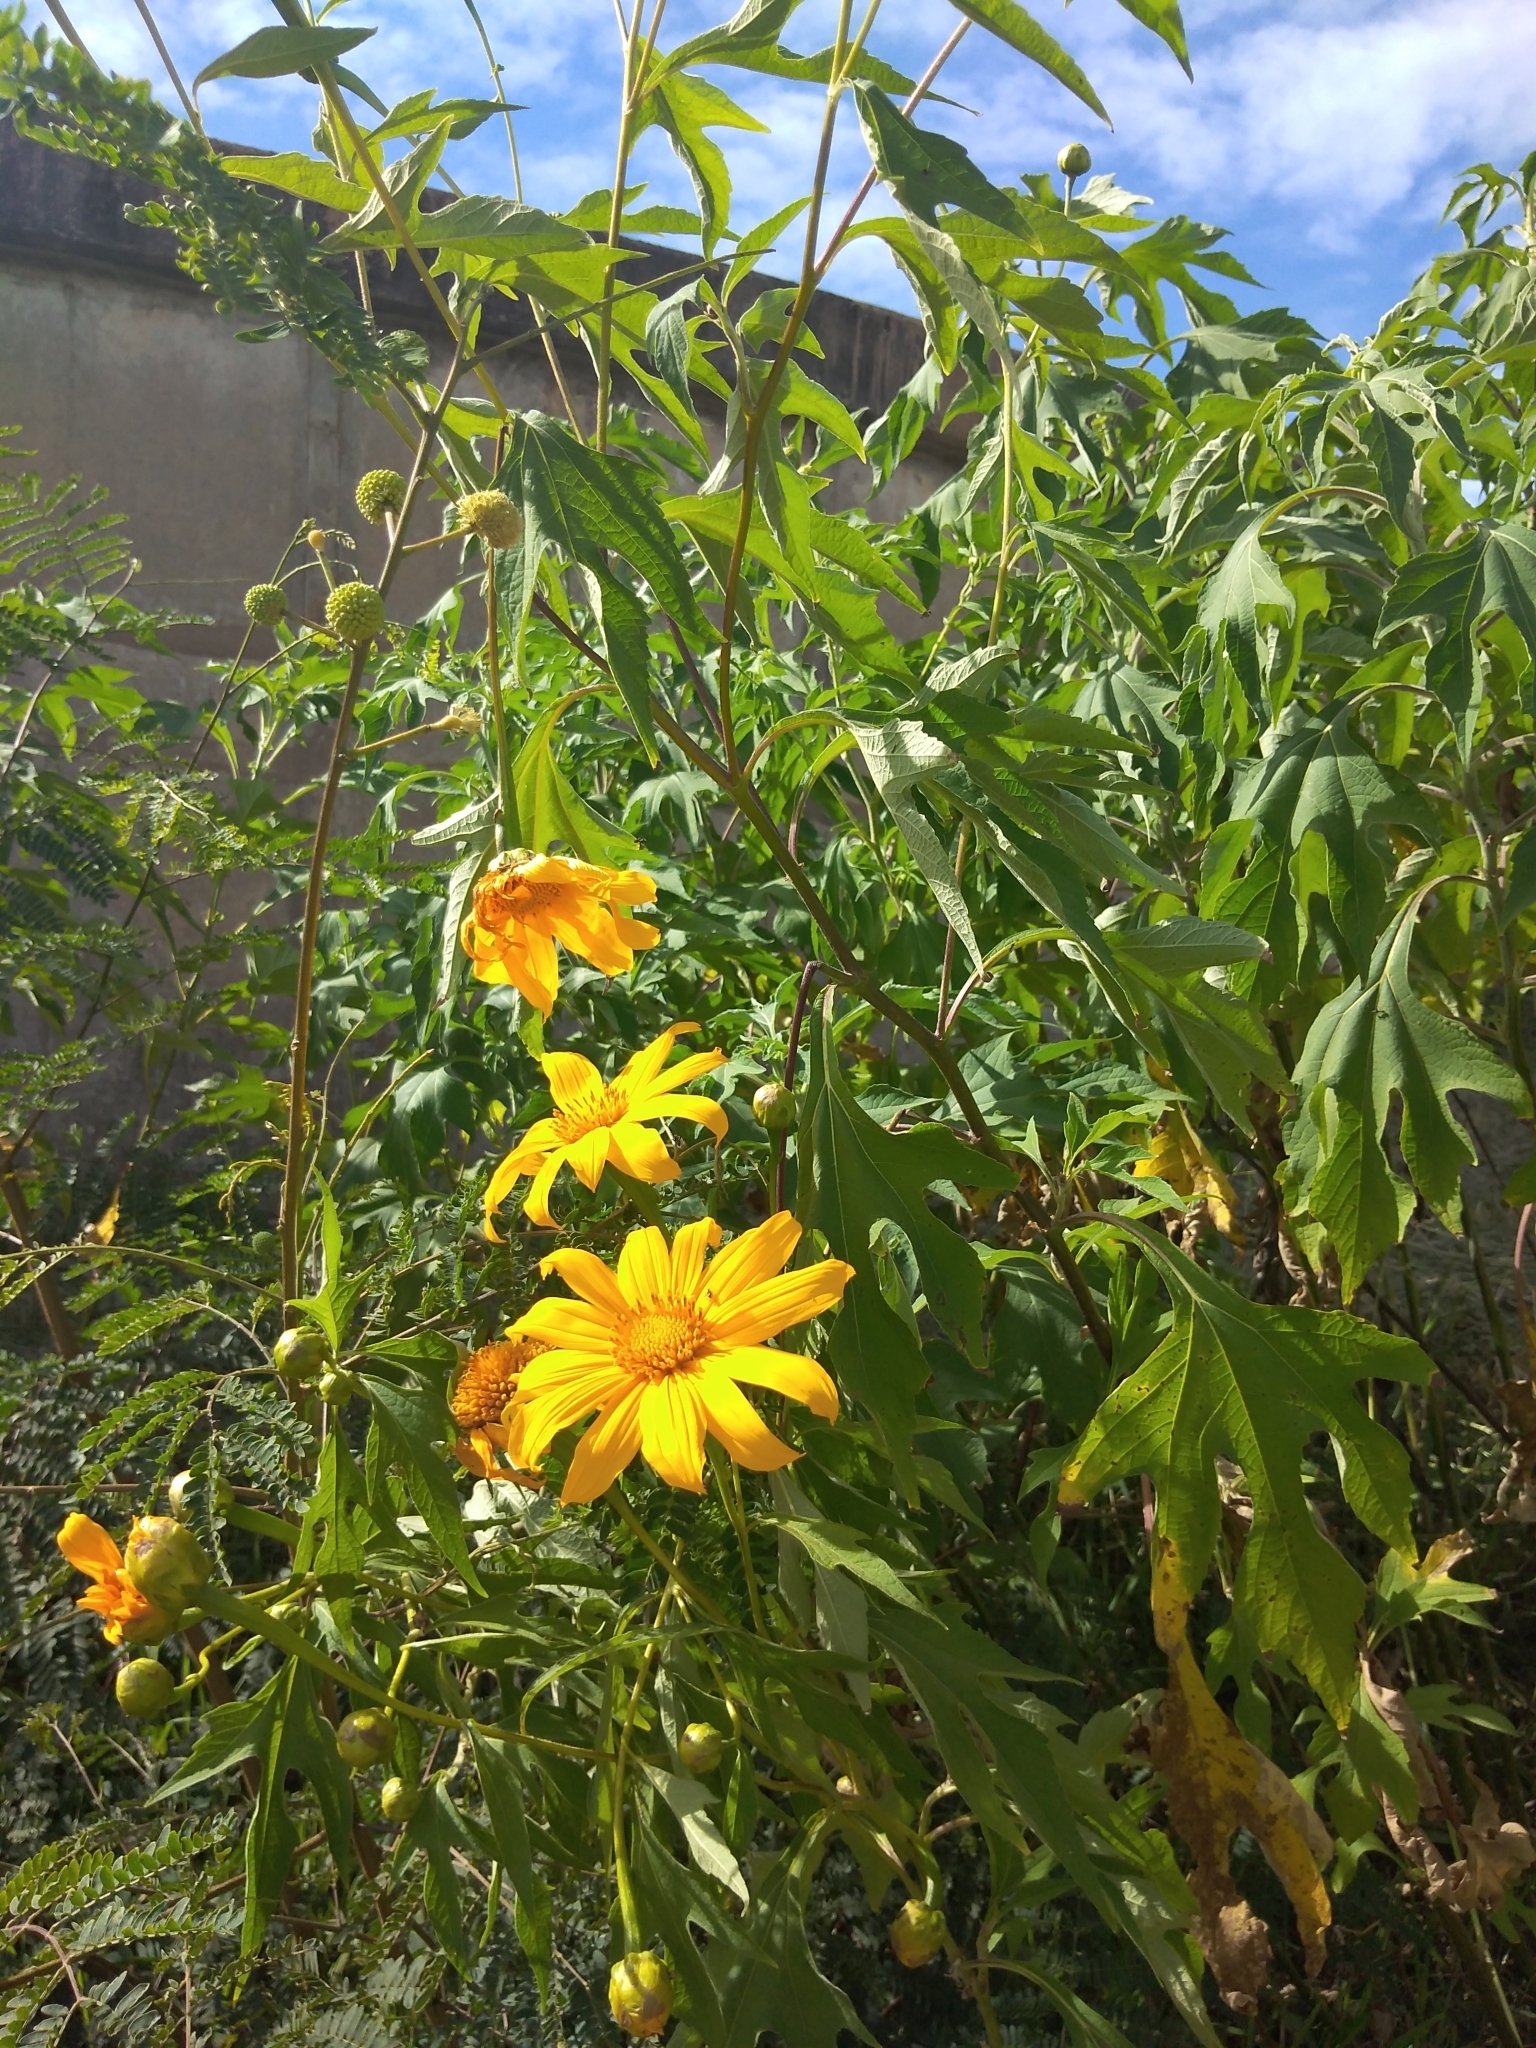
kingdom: Plantae
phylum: Tracheophyta
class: Magnoliopsida
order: Asterales
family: Asteraceae
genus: Tithonia
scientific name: Tithonia diversifolia
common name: Tree marigold
